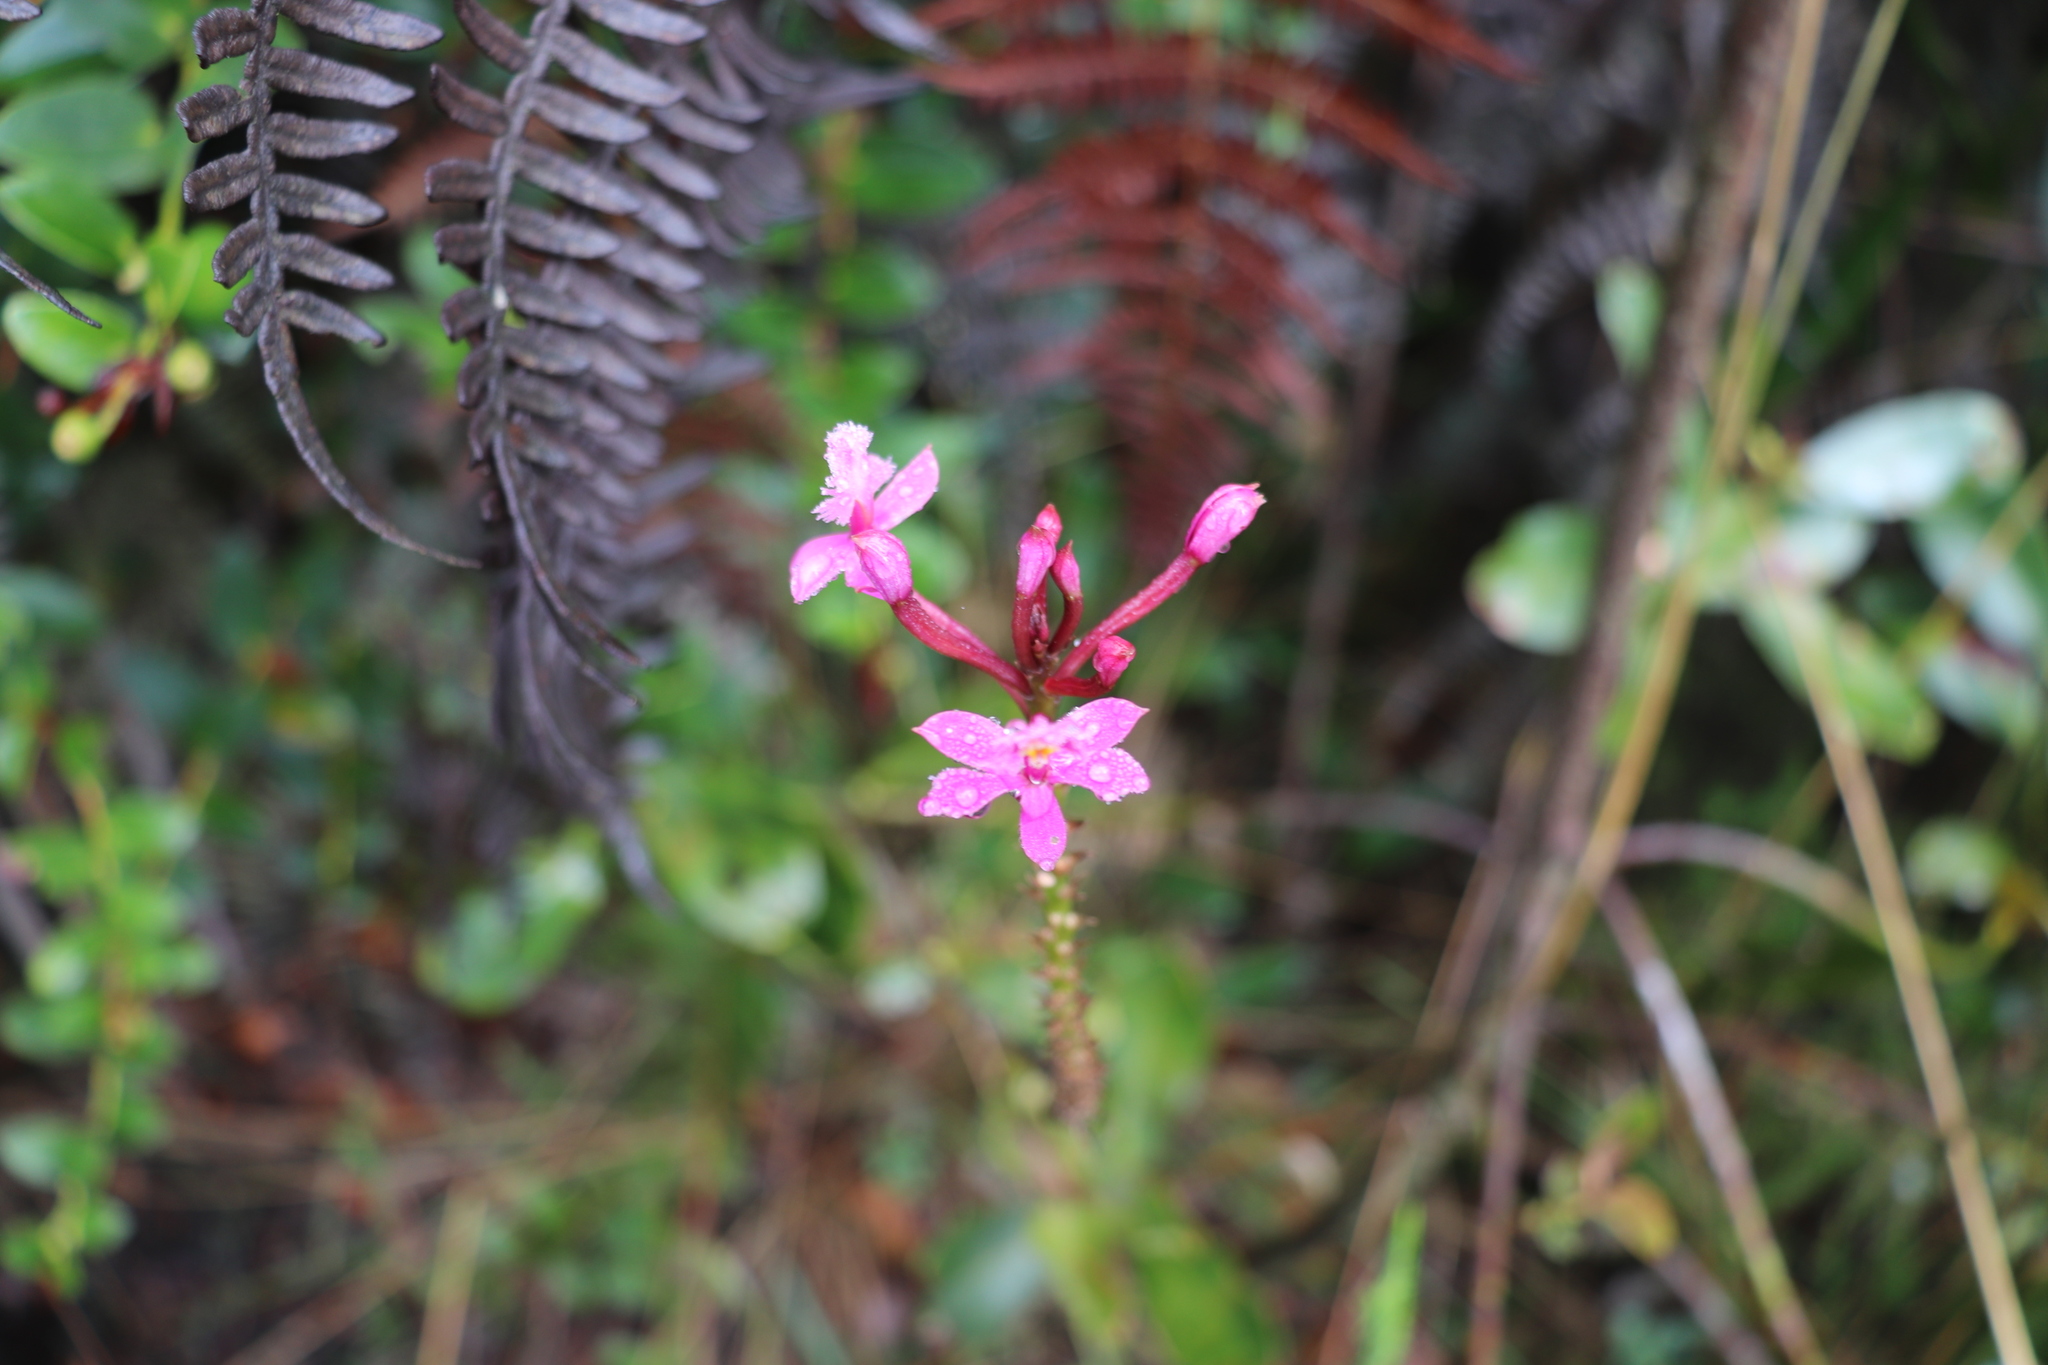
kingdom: Plantae
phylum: Tracheophyta
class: Liliopsida
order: Asparagales
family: Orchidaceae
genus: Epidendrum
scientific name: Epidendrum arachnoglossum
